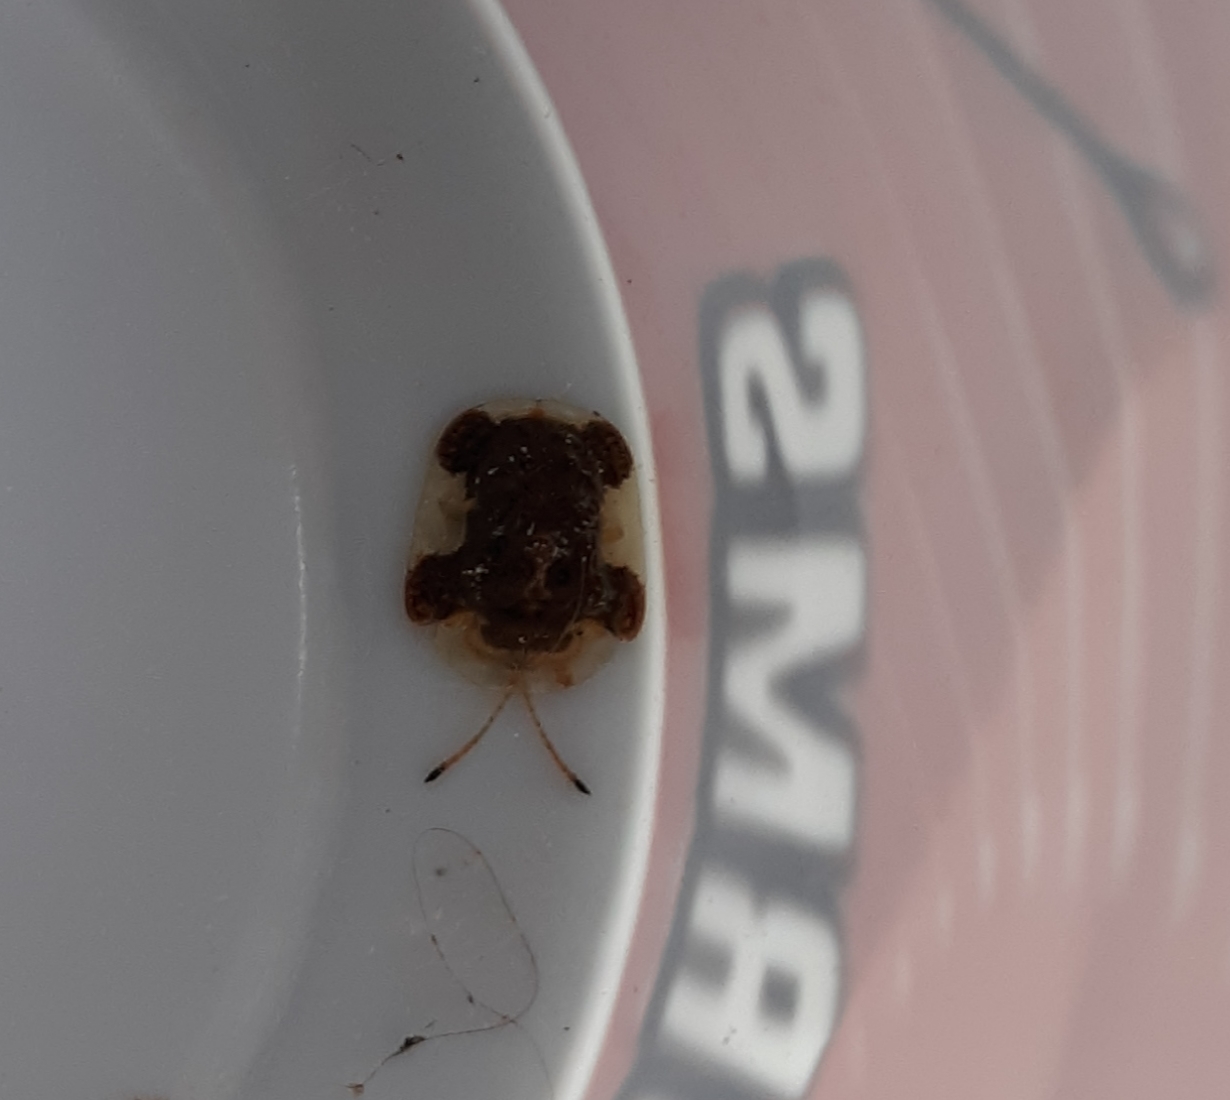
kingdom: Animalia
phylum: Arthropoda
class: Insecta
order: Coleoptera
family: Chrysomelidae
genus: Helocassis
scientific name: Helocassis clavata
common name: Clavate tortoise beetle
